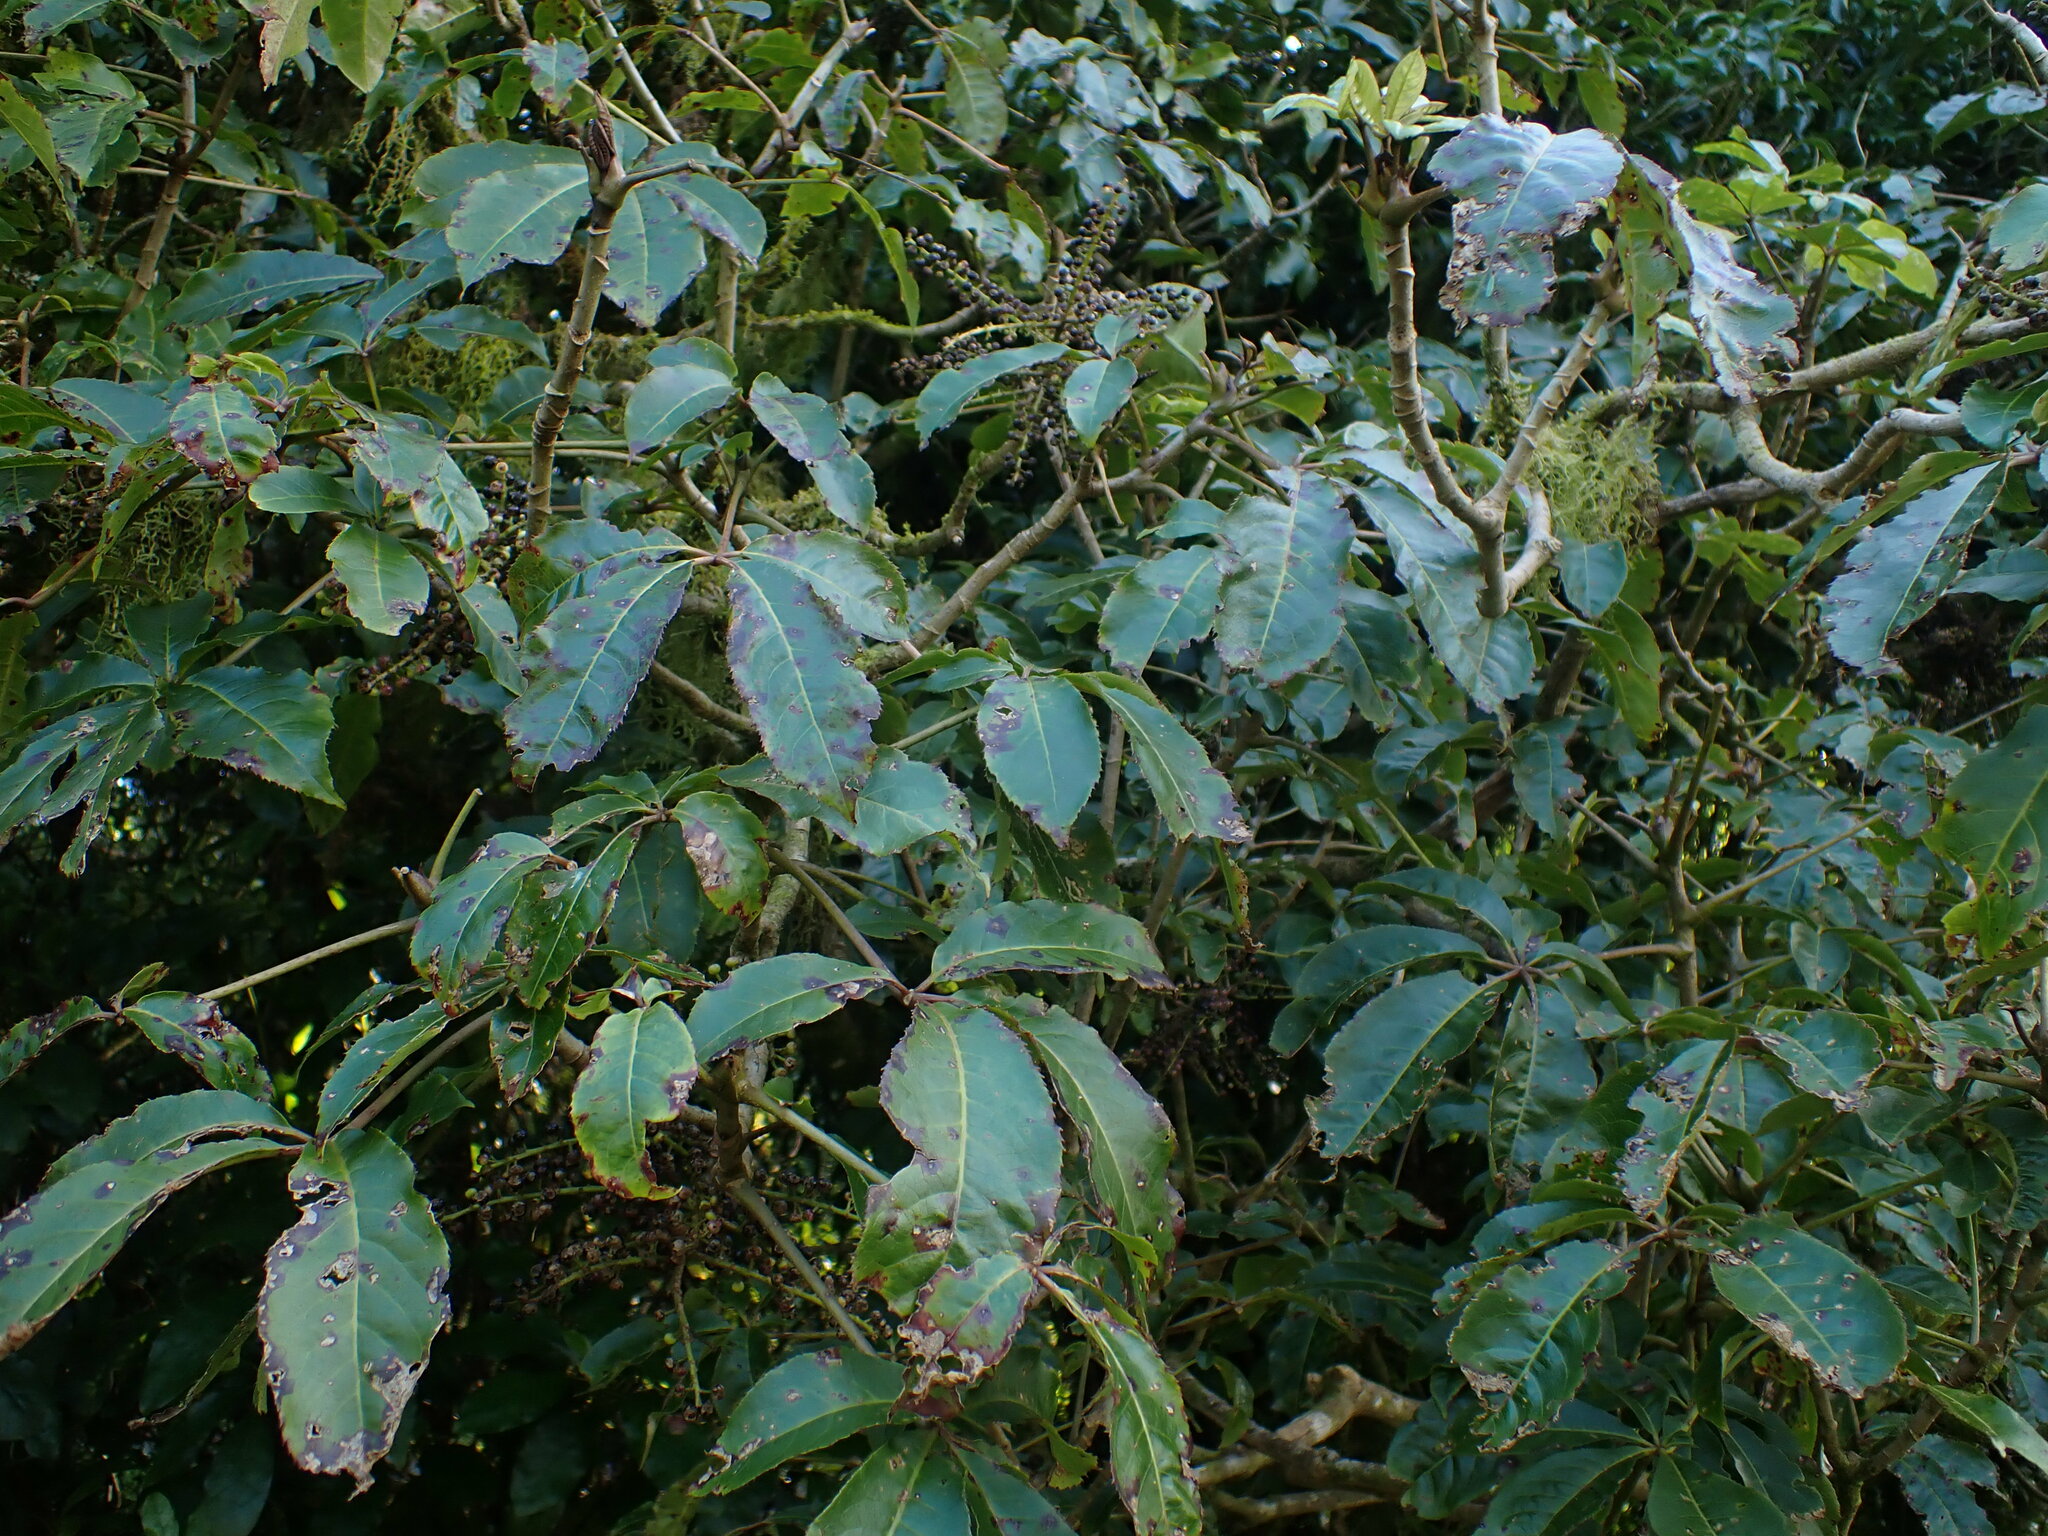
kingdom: Plantae
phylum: Tracheophyta
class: Magnoliopsida
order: Apiales
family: Araliaceae
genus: Schefflera
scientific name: Schefflera digitata
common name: Pate
